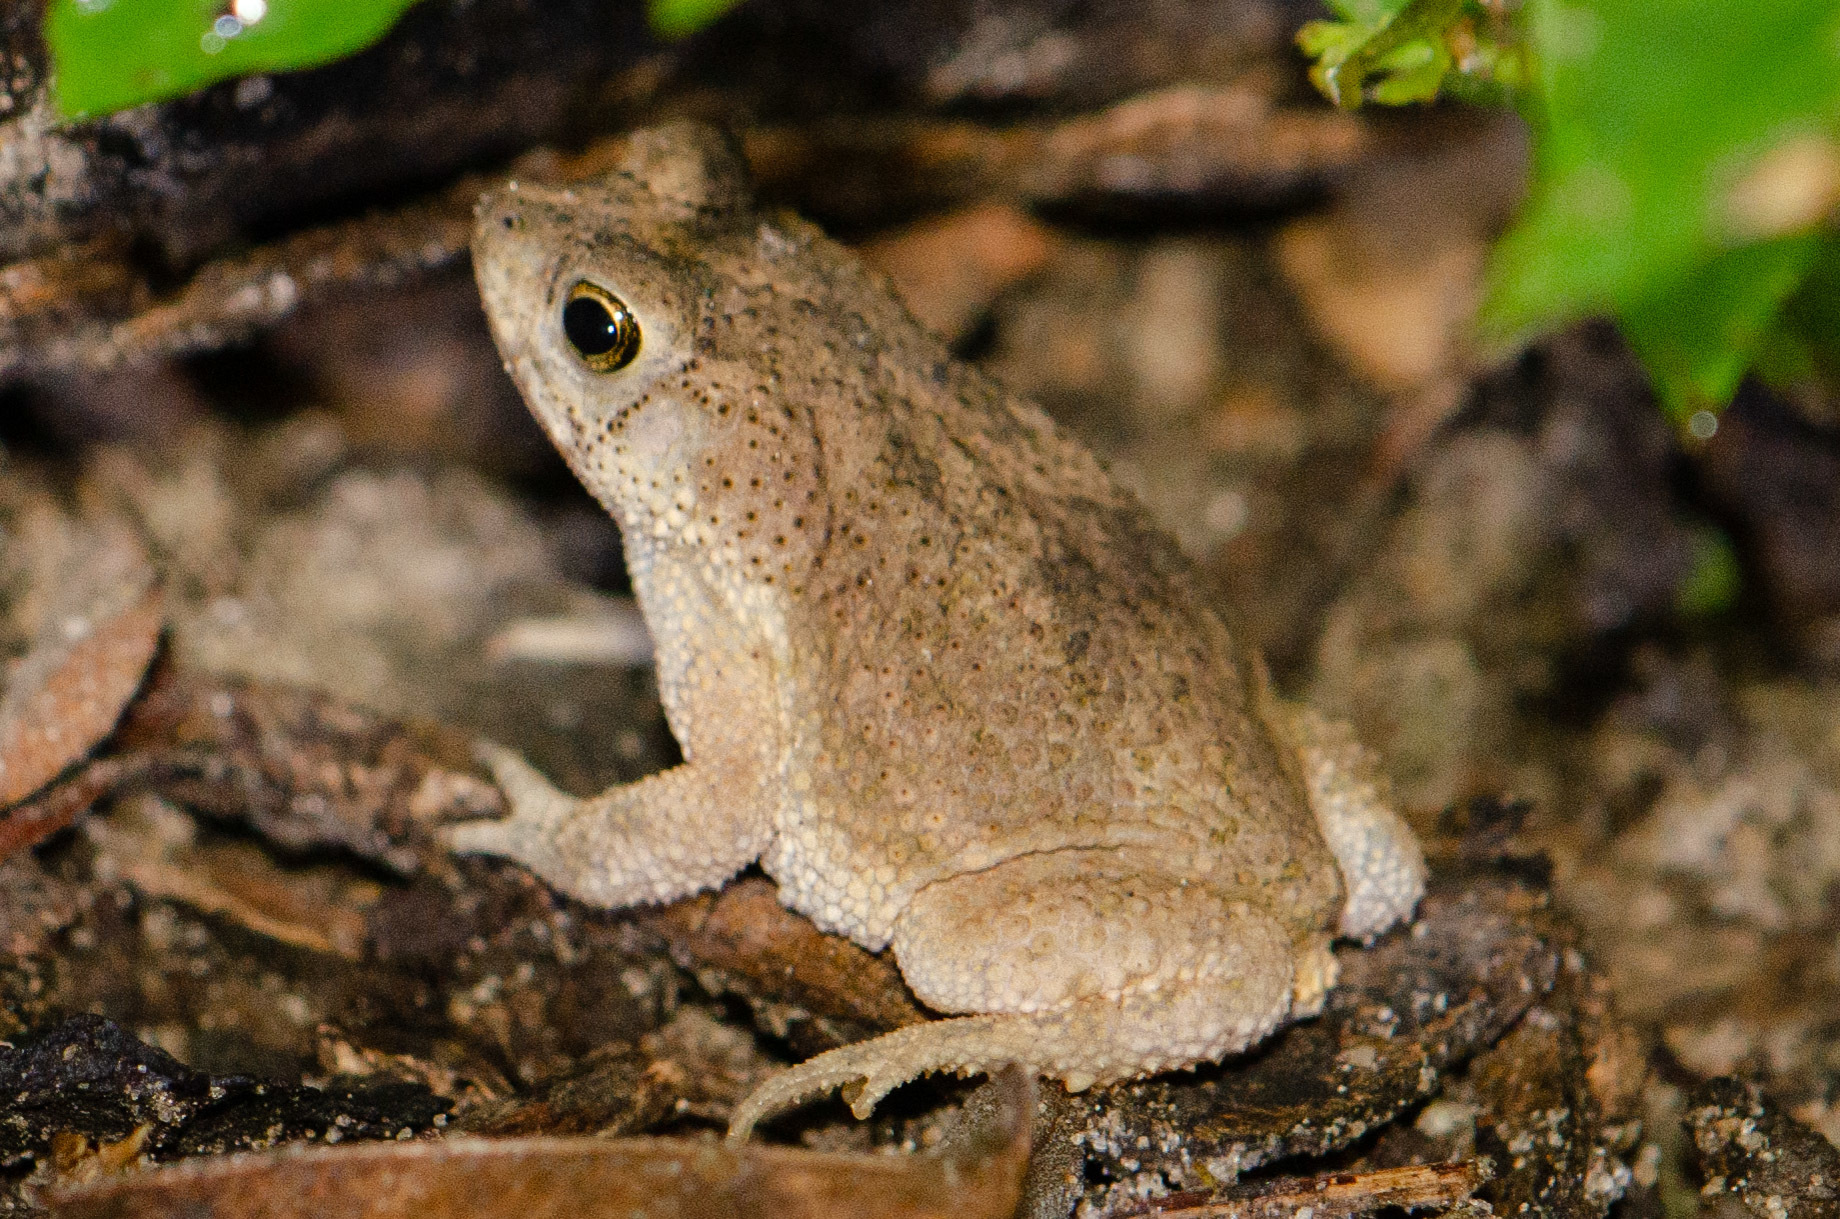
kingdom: Animalia
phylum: Chordata
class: Amphibia
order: Anura
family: Bufonidae
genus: Rhinella
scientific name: Rhinella granulosa
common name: Common lesser toad
